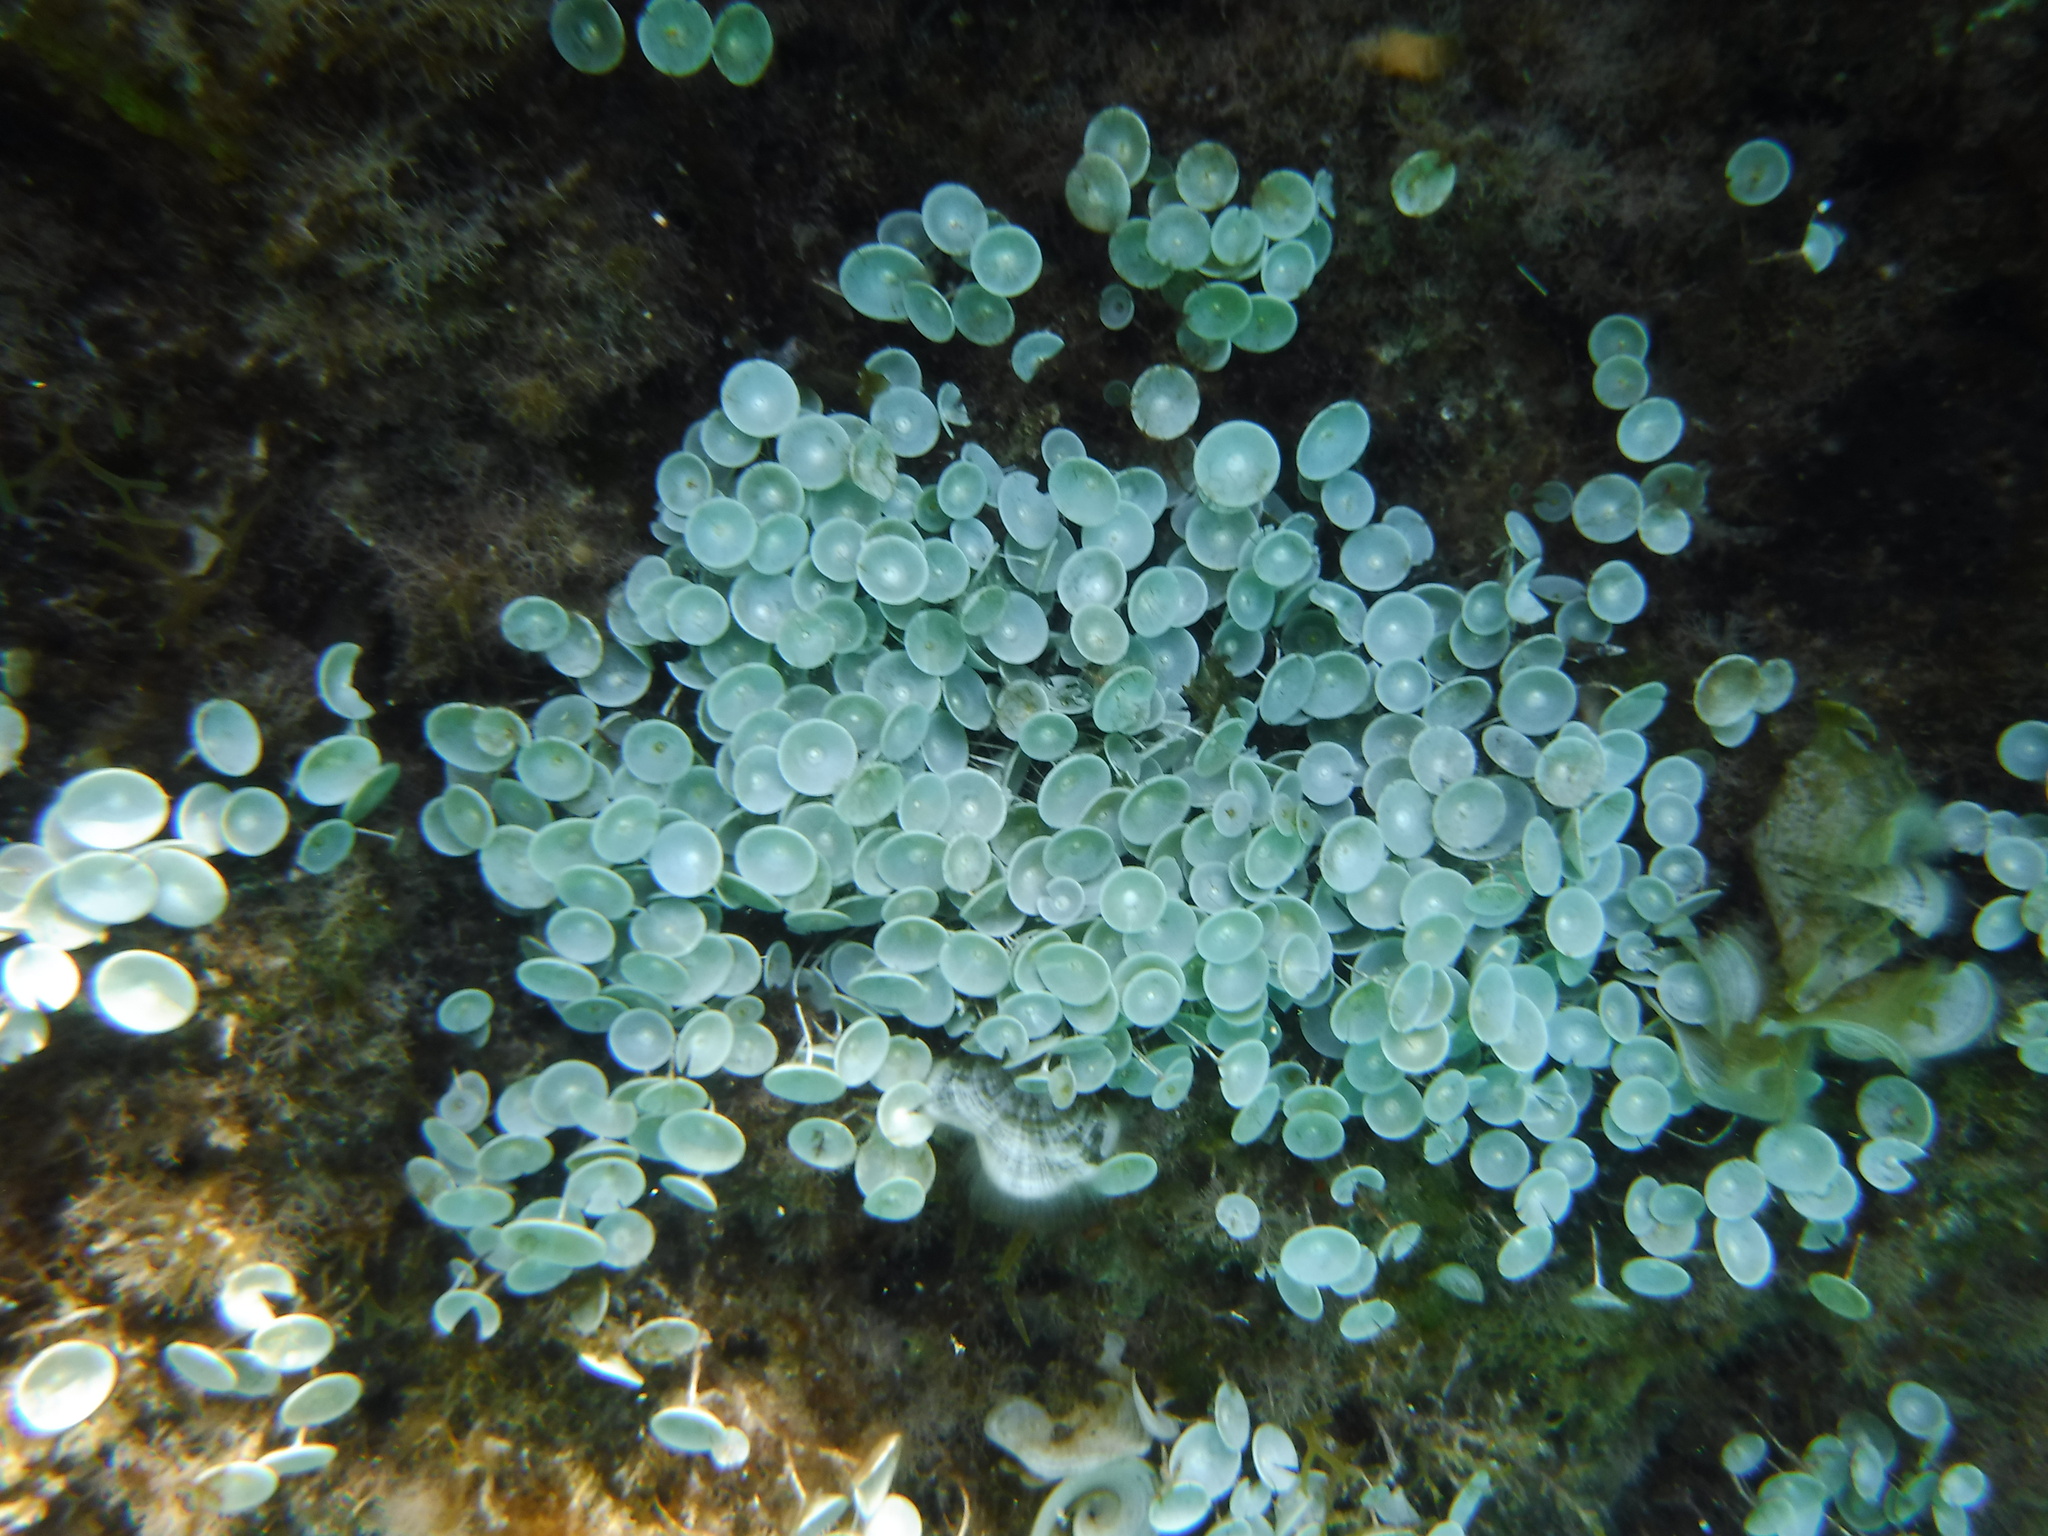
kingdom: Plantae
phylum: Chlorophyta
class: Ulvophyceae
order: Dasycladales
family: Polyphysaceae
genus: Acetabularia
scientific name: Acetabularia acetabulum
